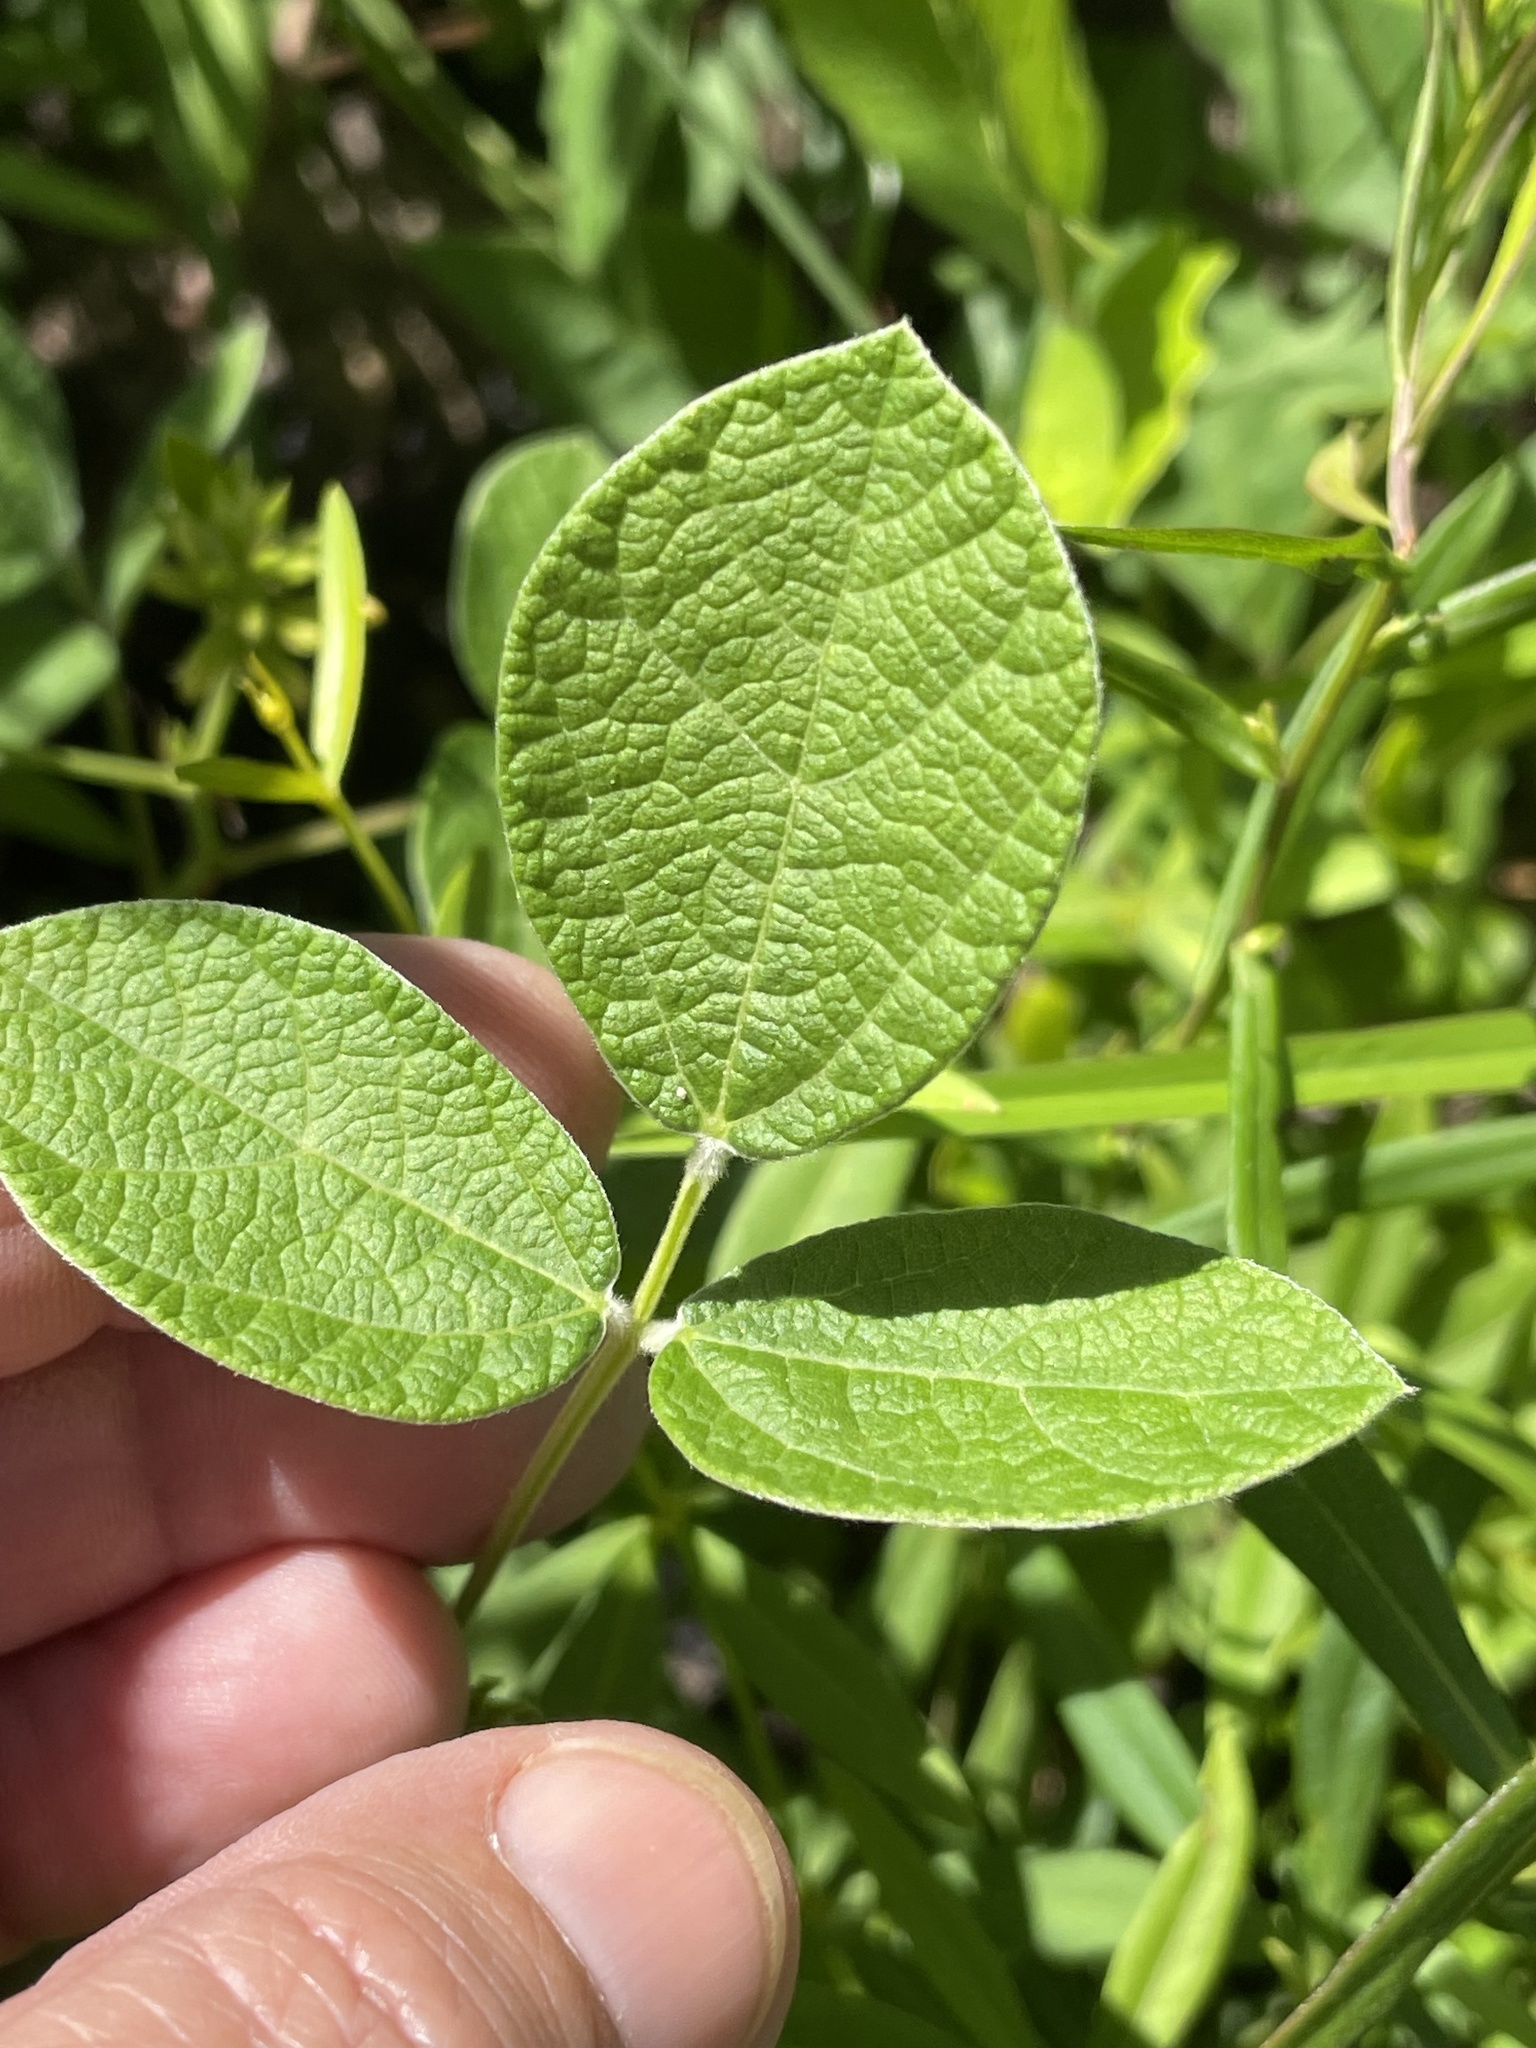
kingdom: Plantae
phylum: Tracheophyta
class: Magnoliopsida
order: Fabales
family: Fabaceae
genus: Rhynchosia
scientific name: Rhynchosia tomentosa
